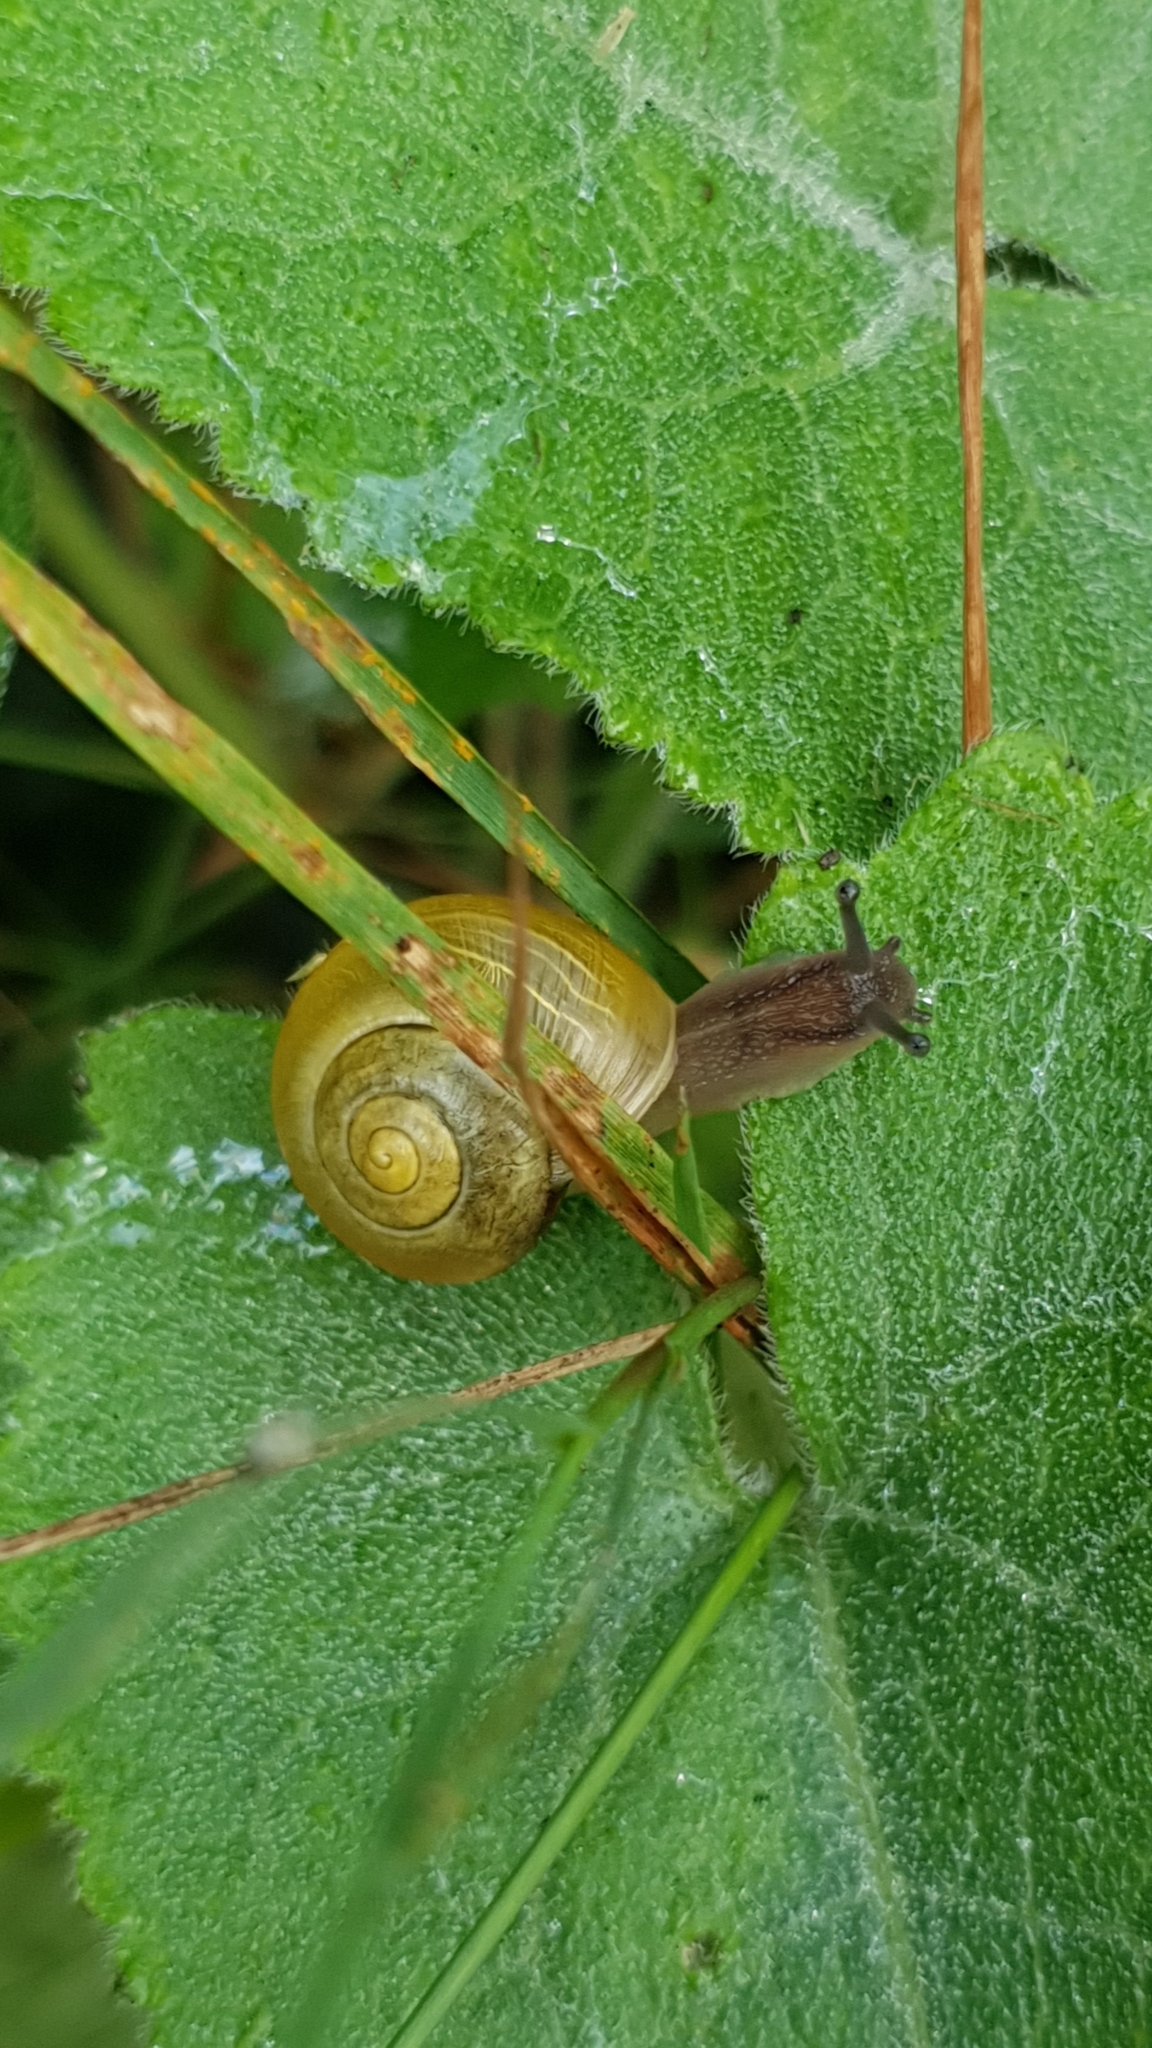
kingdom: Animalia
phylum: Mollusca
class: Gastropoda
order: Stylommatophora
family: Helicidae
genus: Cepaea
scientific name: Cepaea
